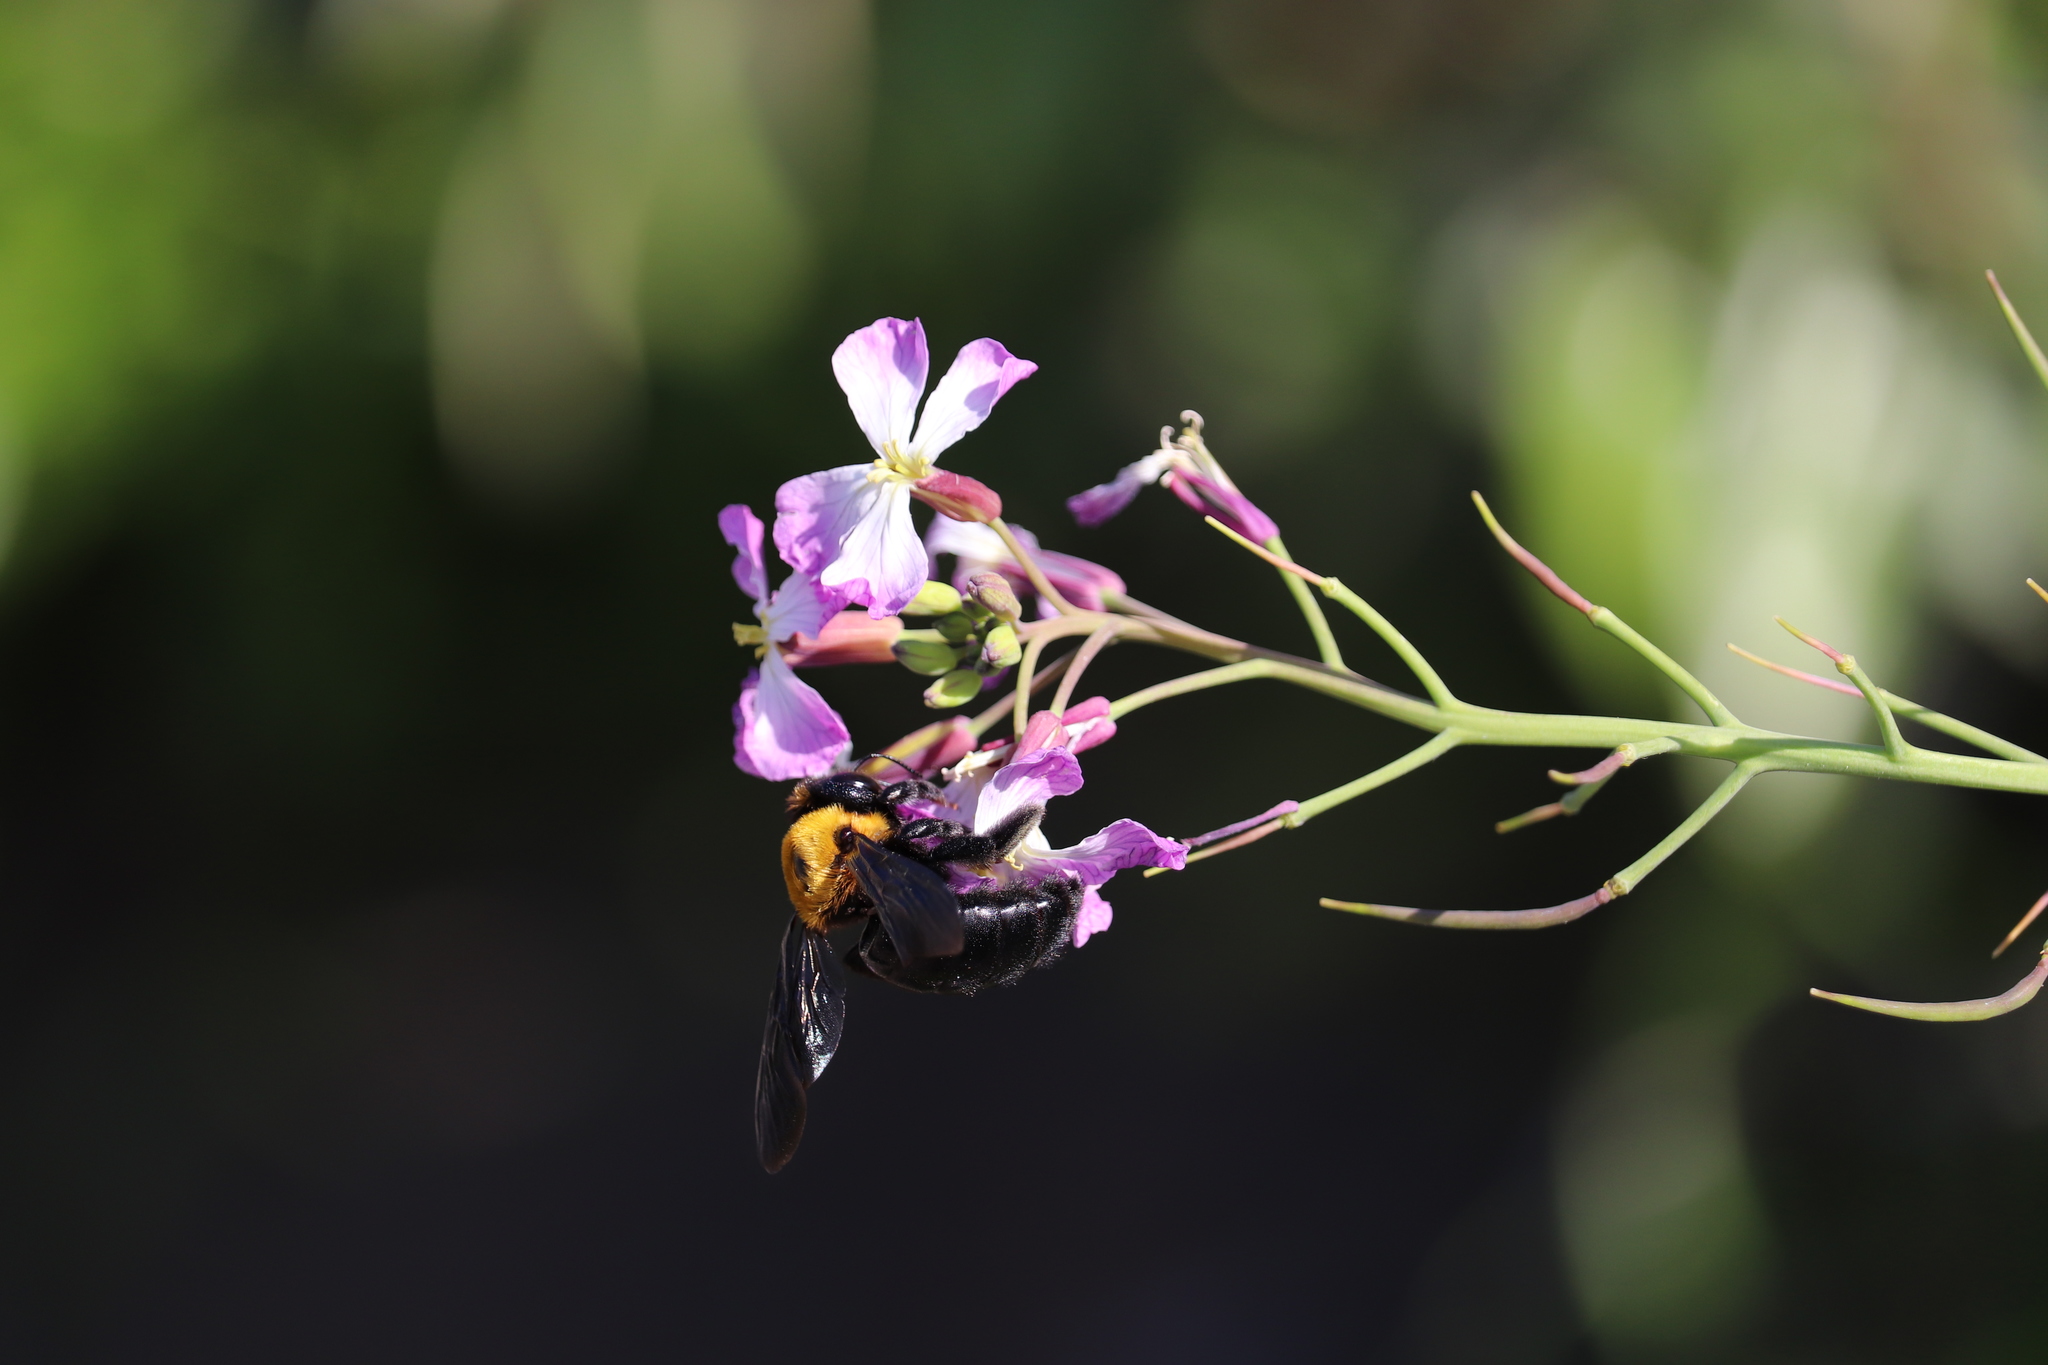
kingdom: Animalia
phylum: Arthropoda
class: Insecta
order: Hymenoptera
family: Apidae
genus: Xylocopa
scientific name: Xylocopa appendiculata
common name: Japanese carpenter bee
